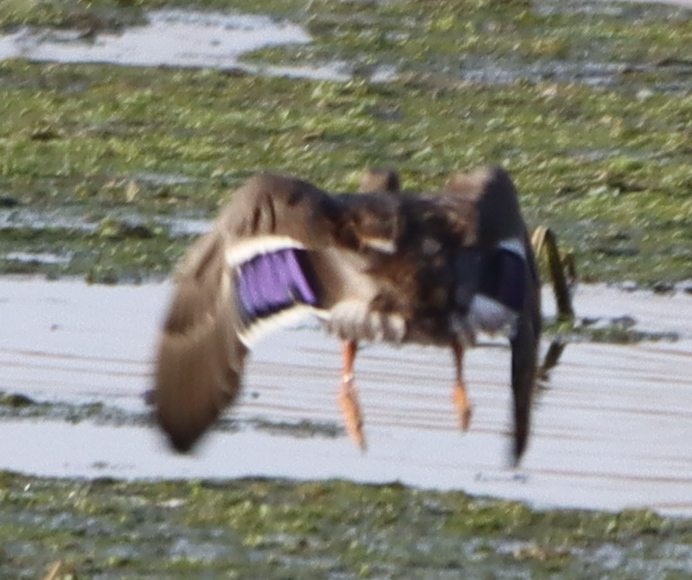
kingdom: Animalia
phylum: Chordata
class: Aves
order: Anseriformes
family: Anatidae
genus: Anas
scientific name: Anas platyrhynchos
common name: Mallard
